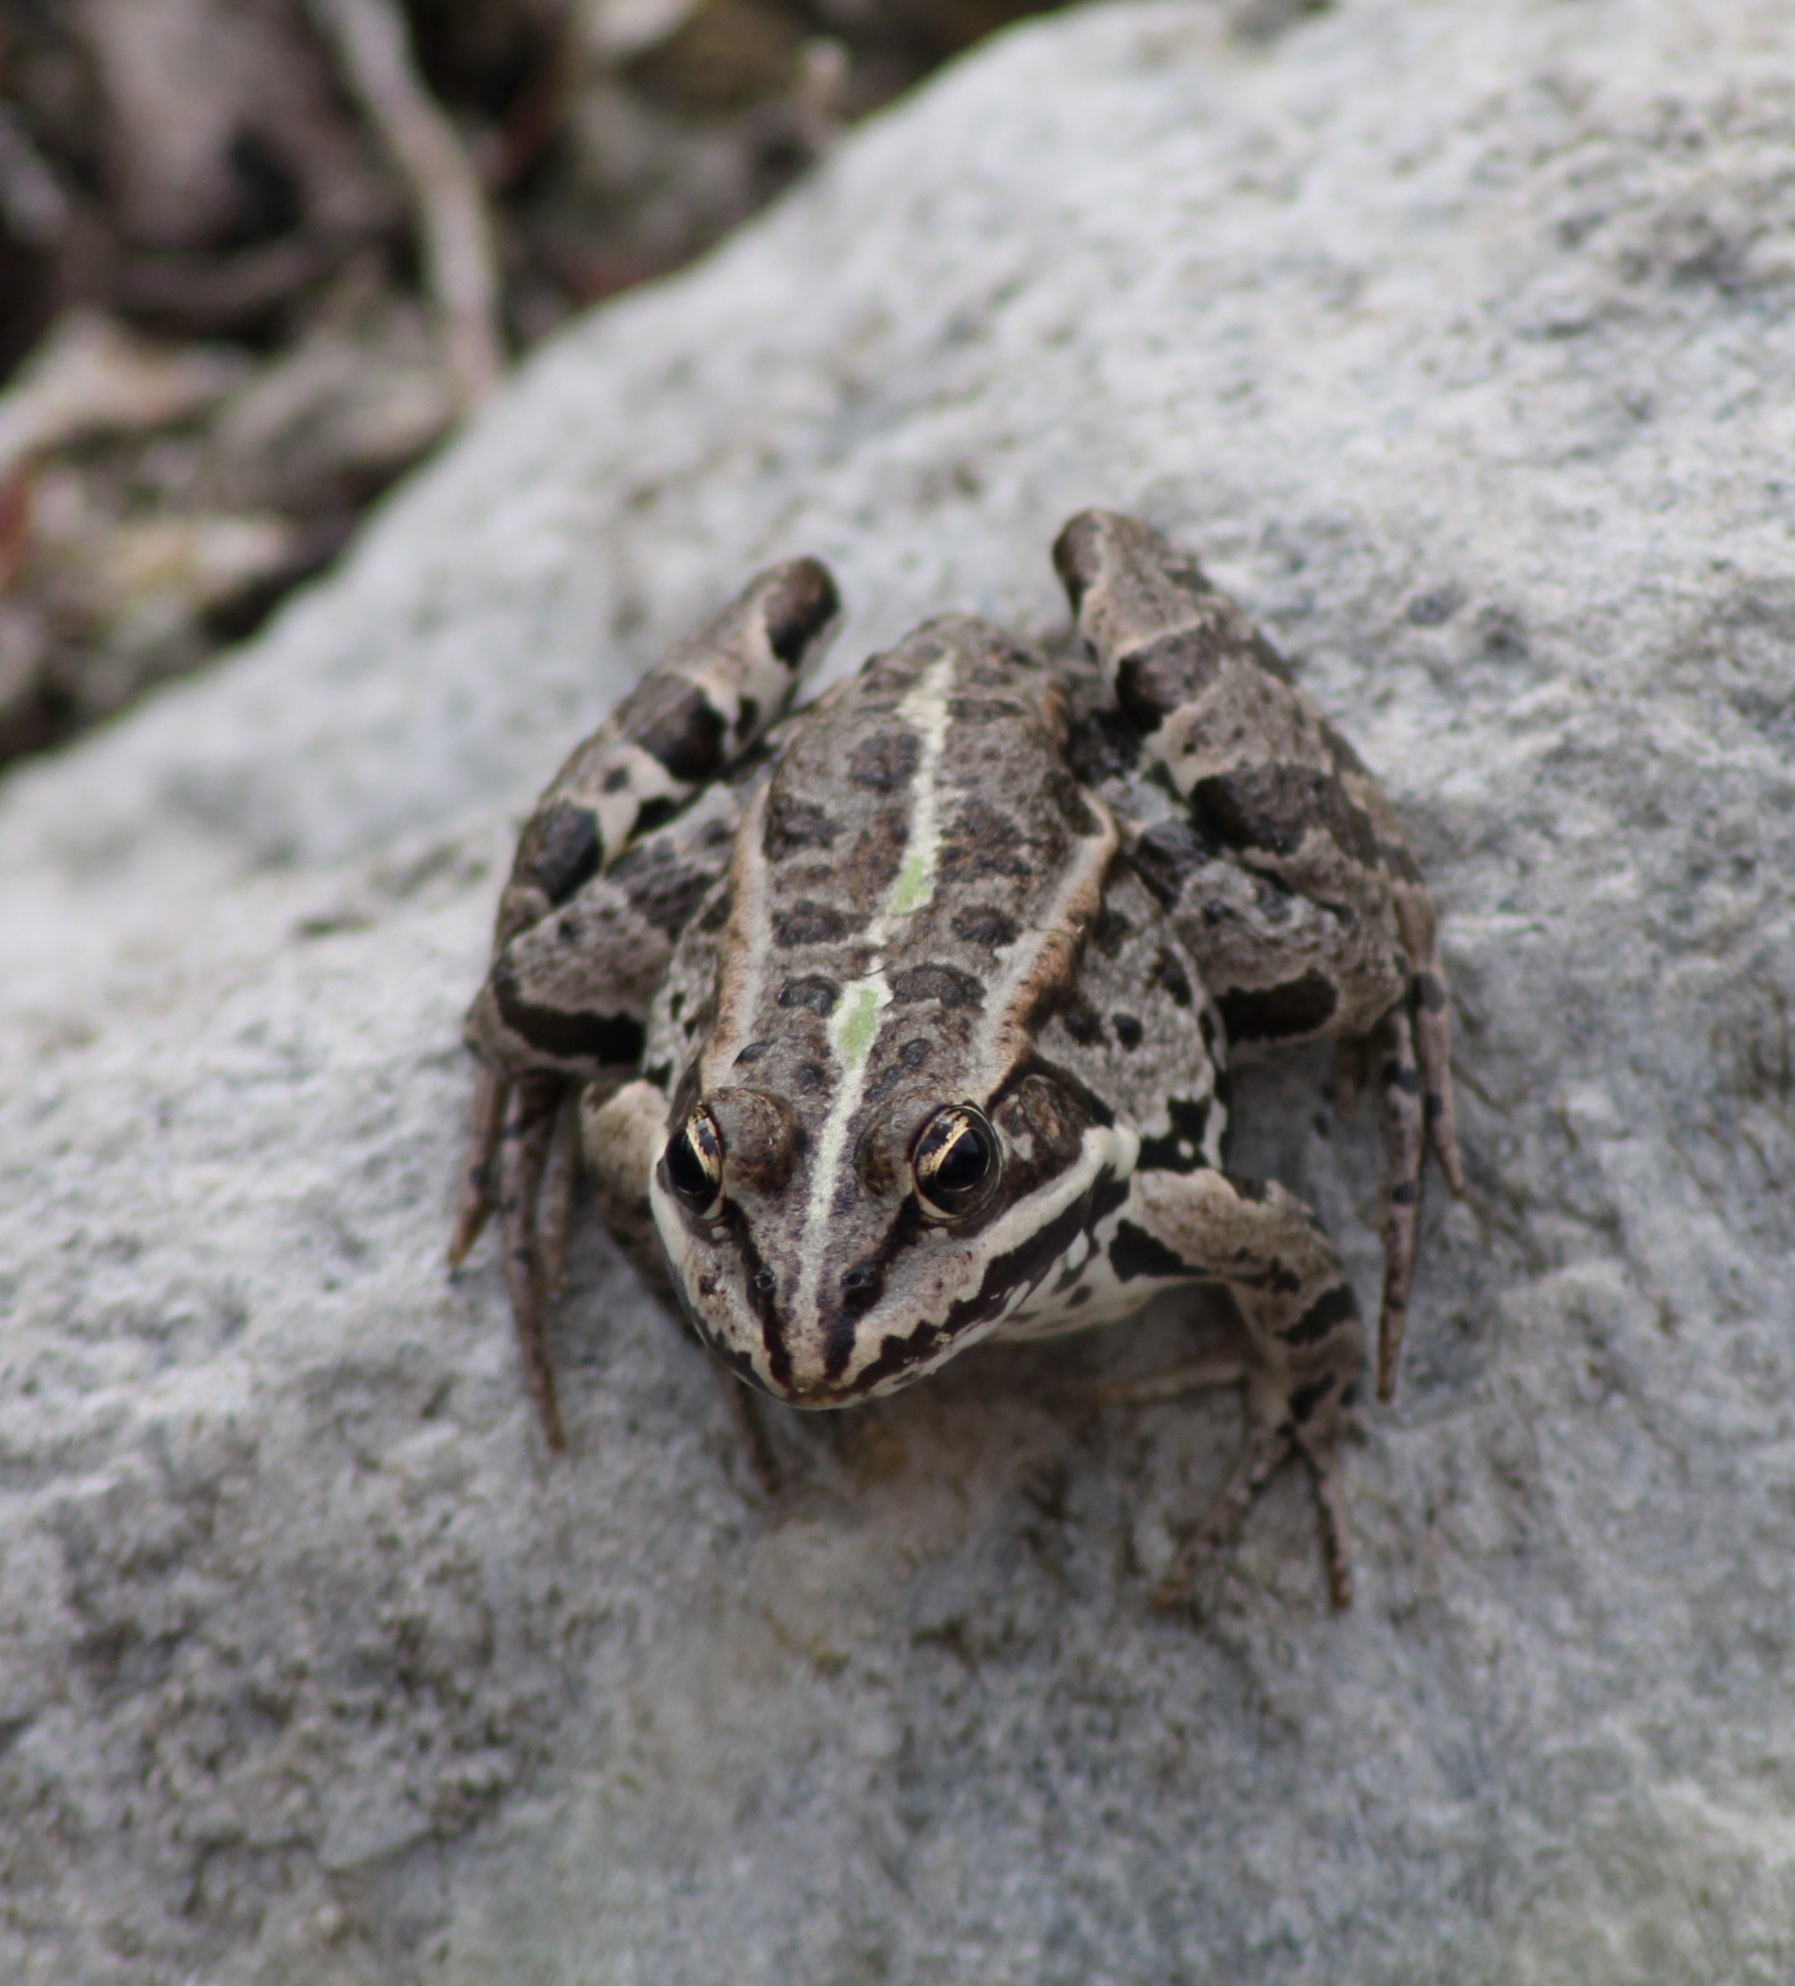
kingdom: Animalia
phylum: Chordata
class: Amphibia
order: Anura
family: Ranidae
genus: Pelophylax
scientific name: Pelophylax
